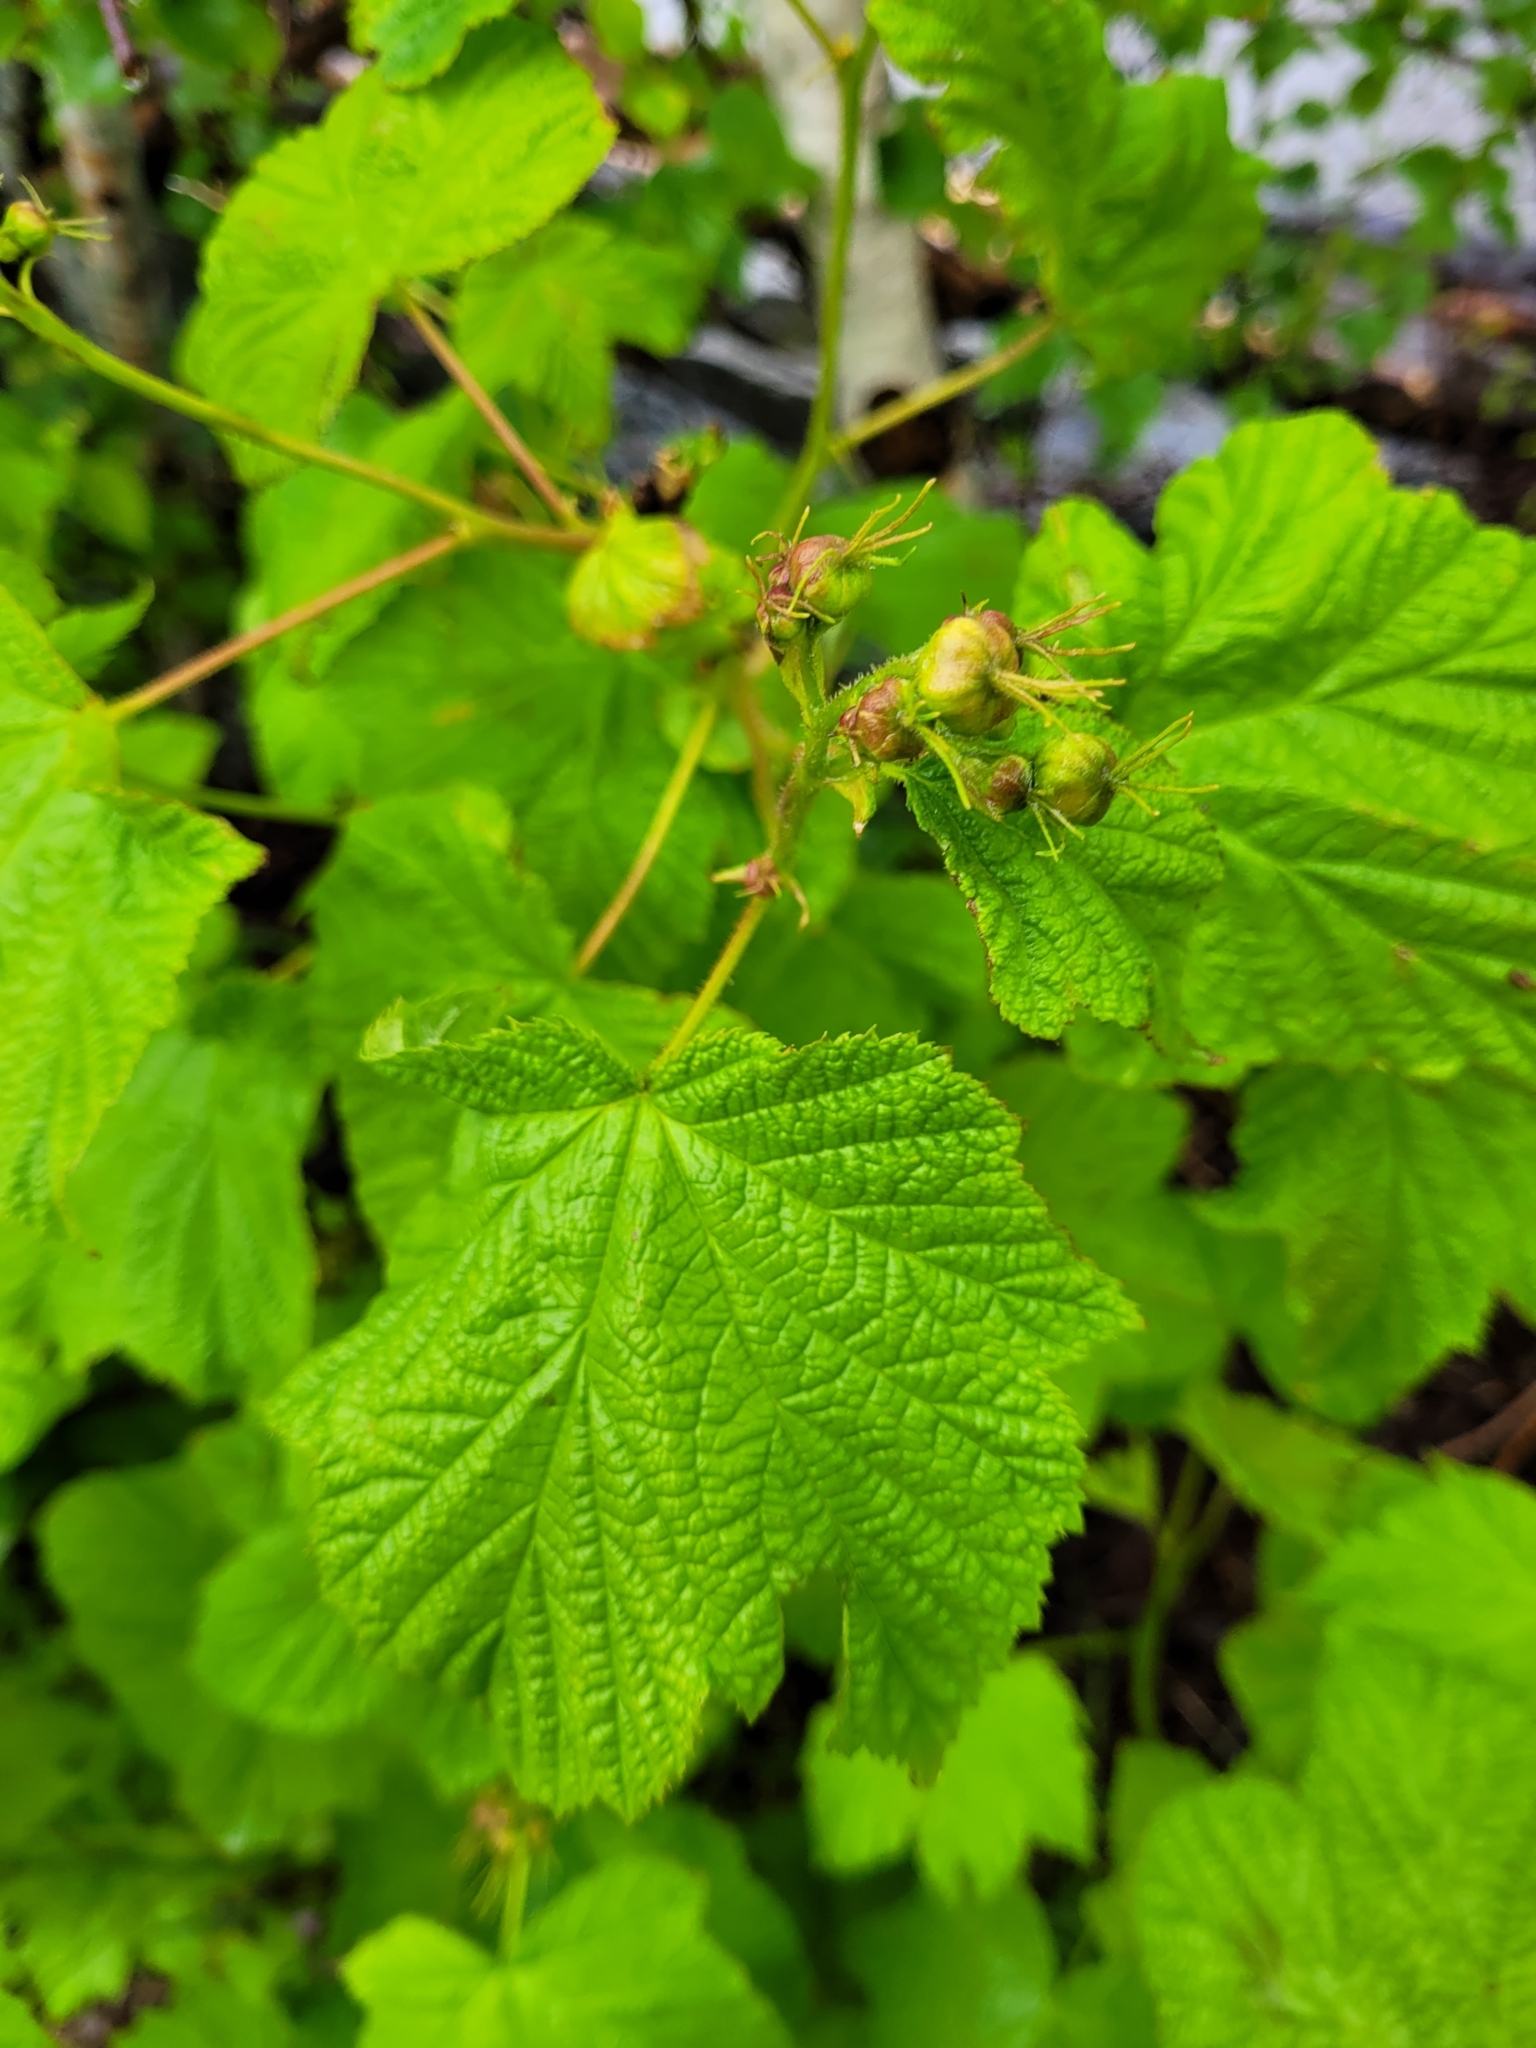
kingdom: Plantae
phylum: Tracheophyta
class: Magnoliopsida
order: Rosales
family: Rosaceae
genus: Rubus
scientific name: Rubus parviflorus
